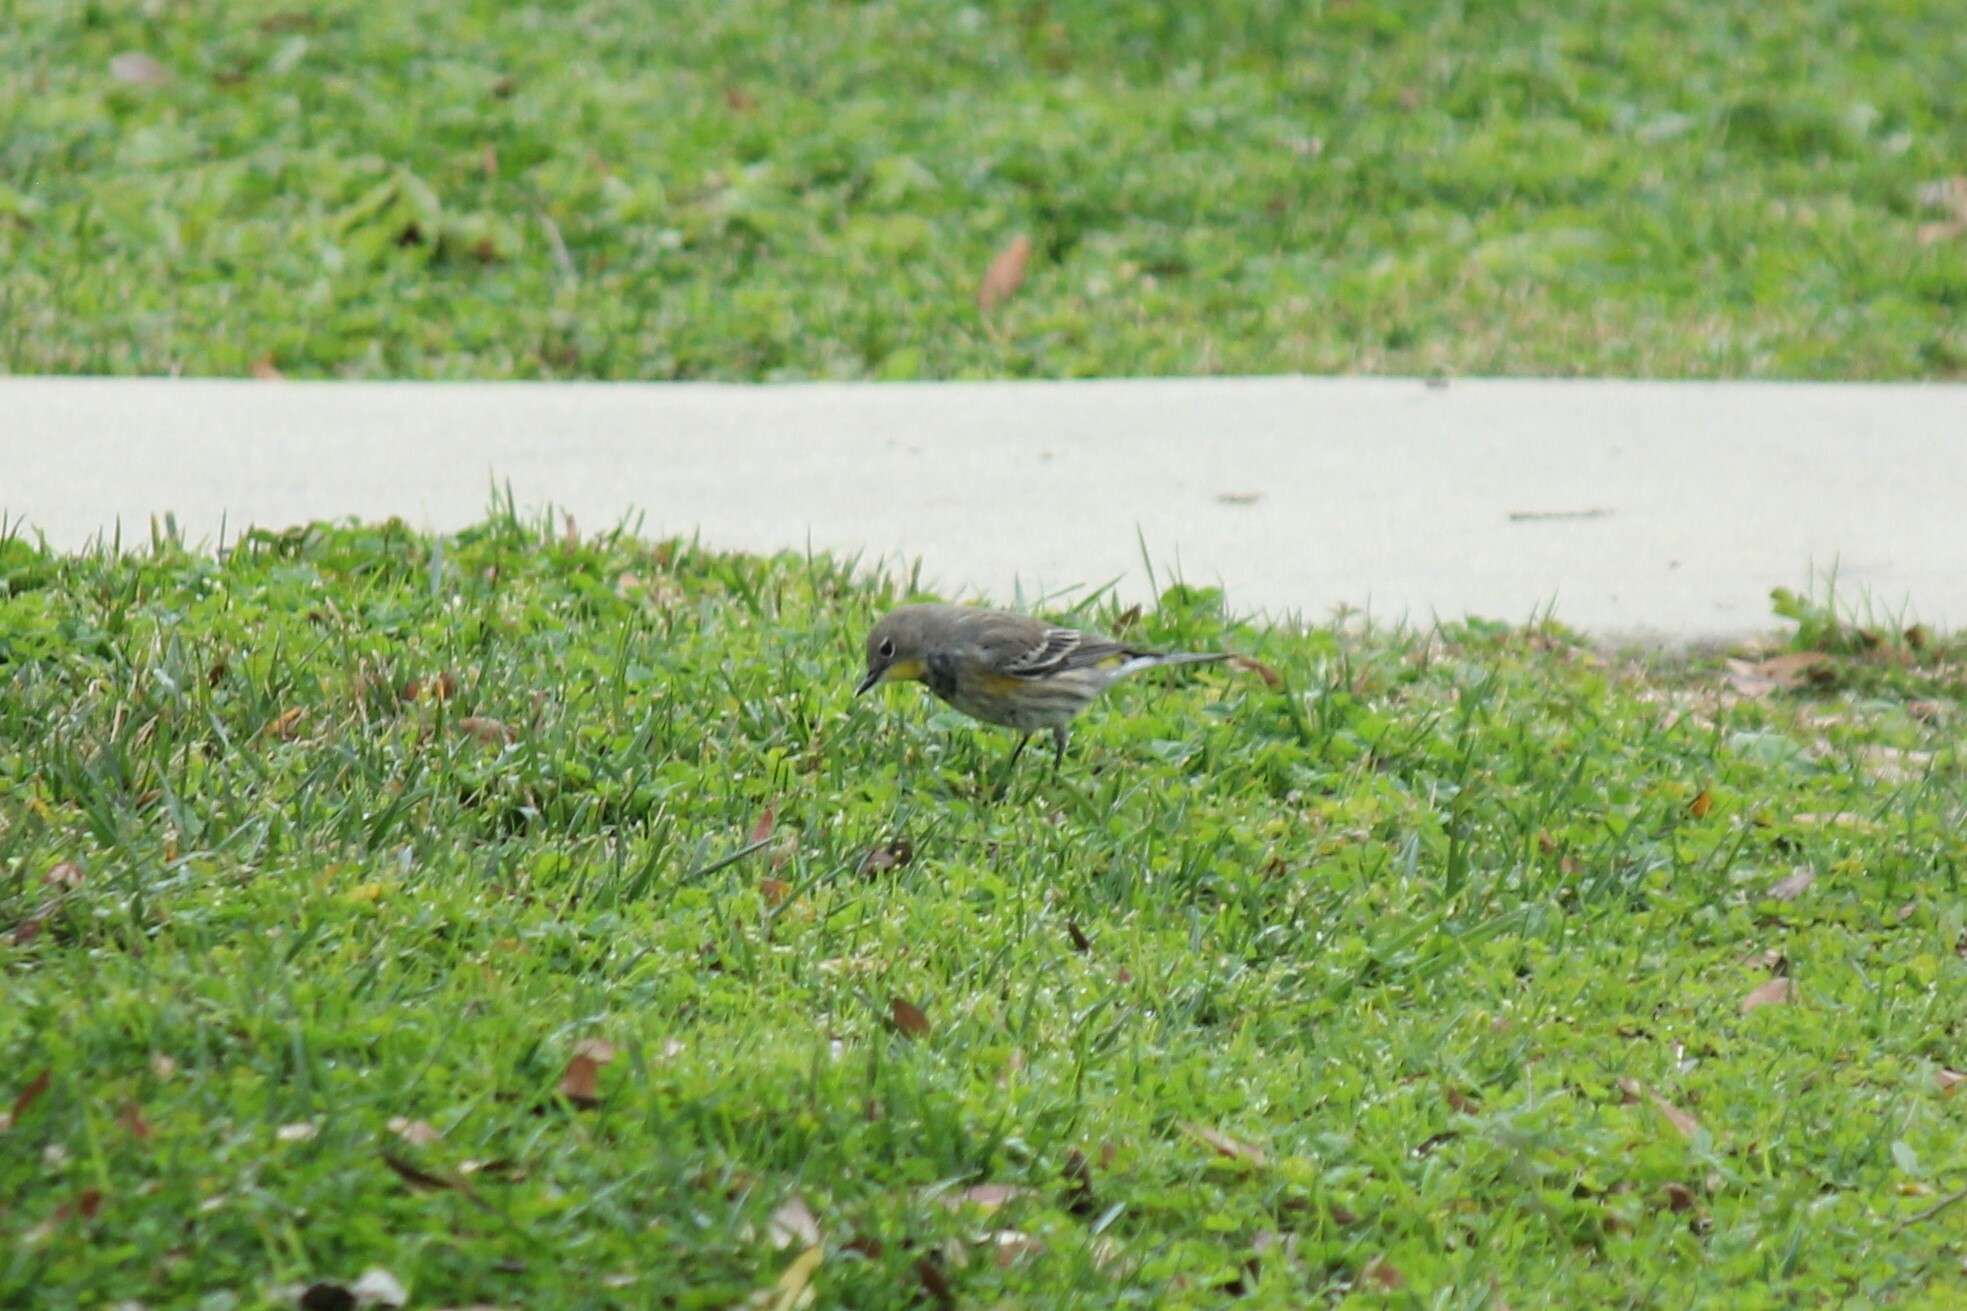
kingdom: Animalia
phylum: Chordata
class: Aves
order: Passeriformes
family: Parulidae
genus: Setophaga
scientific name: Setophaga coronata
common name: Myrtle warbler
